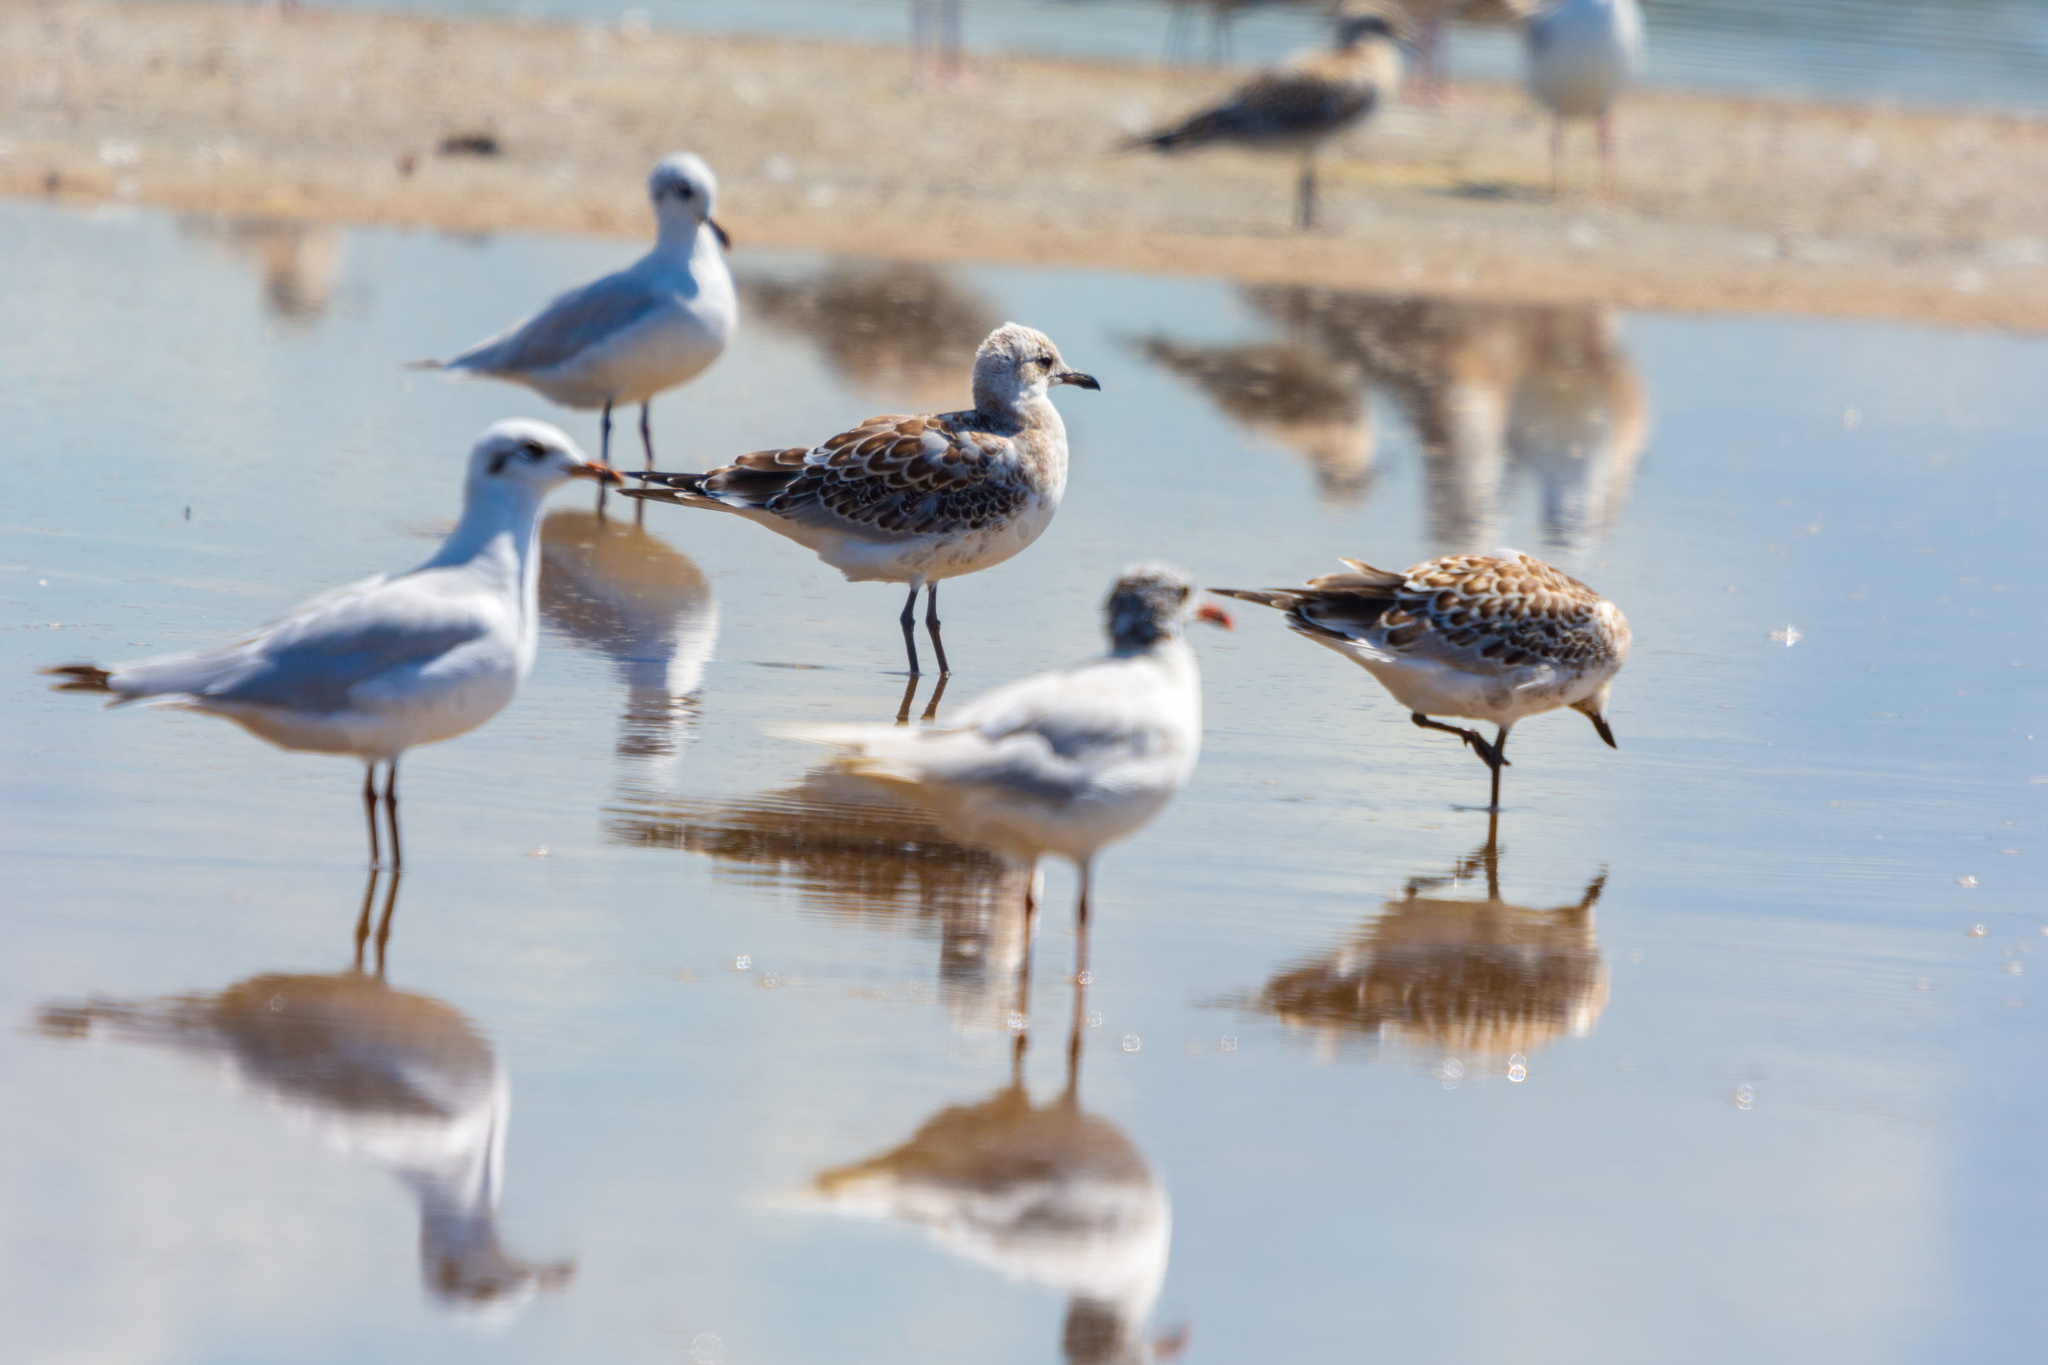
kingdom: Animalia
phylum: Chordata
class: Aves
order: Charadriiformes
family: Laridae
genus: Ichthyaetus
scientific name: Ichthyaetus melanocephalus
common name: Mediterranean gull
